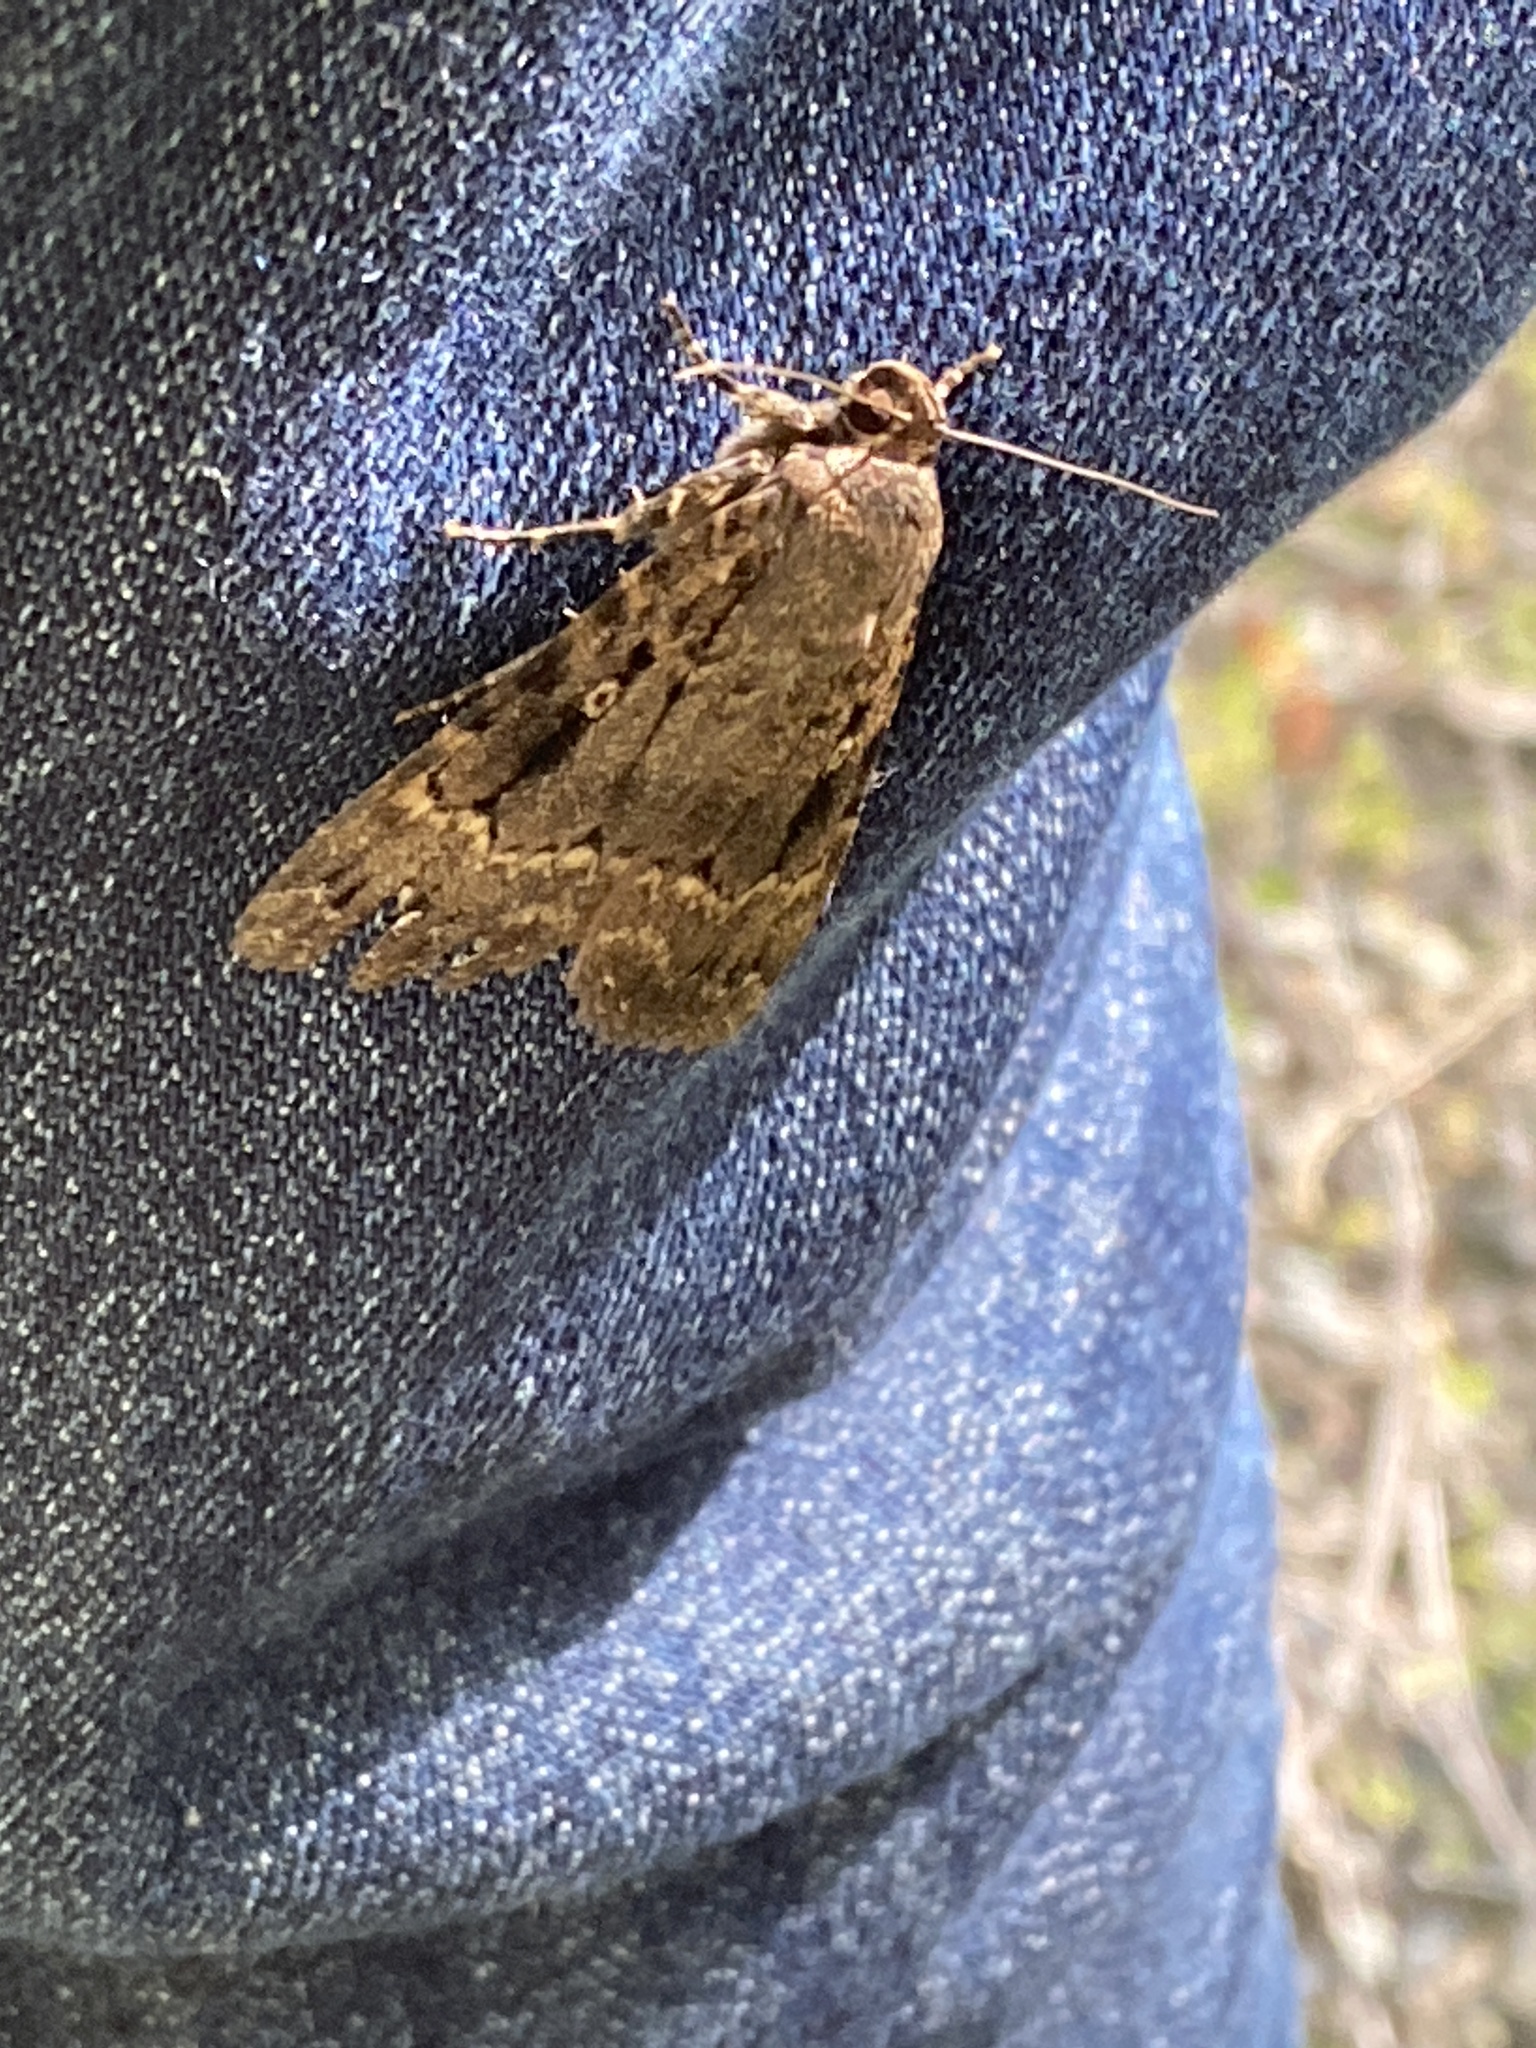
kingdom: Animalia
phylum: Arthropoda
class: Insecta
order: Lepidoptera
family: Noctuidae
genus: Amphipyra
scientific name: Amphipyra pyramidea
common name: Copper underwing
